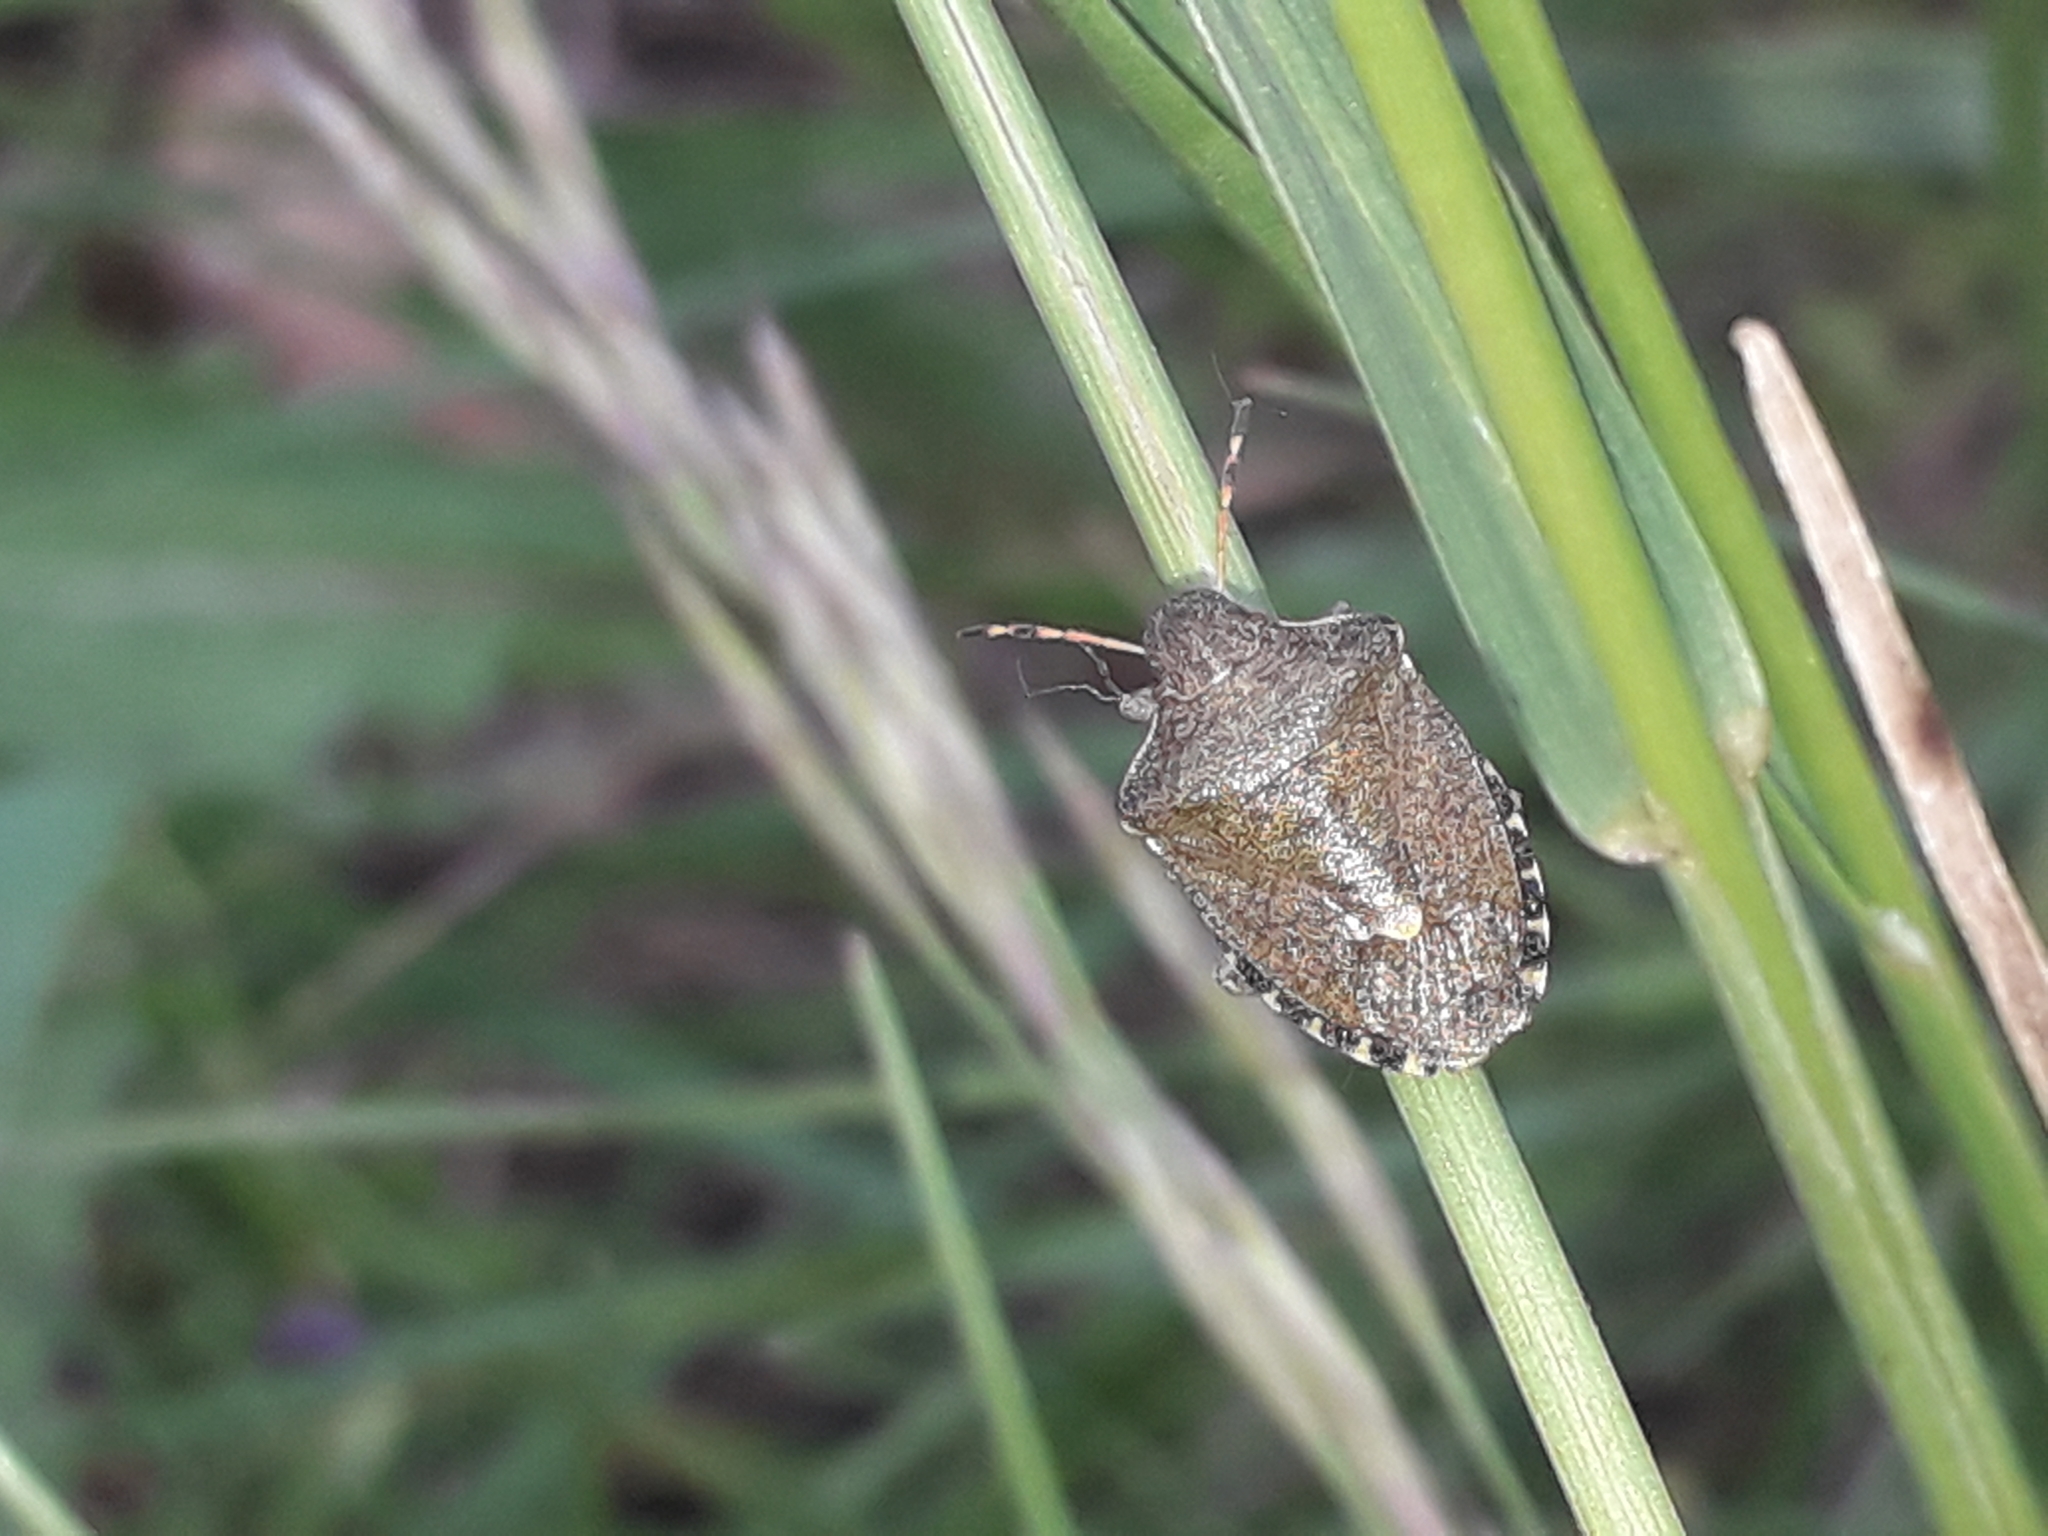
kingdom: Animalia
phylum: Arthropoda
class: Insecta
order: Hemiptera
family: Pentatomidae
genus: Holcostethus
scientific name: Holcostethus strictus
